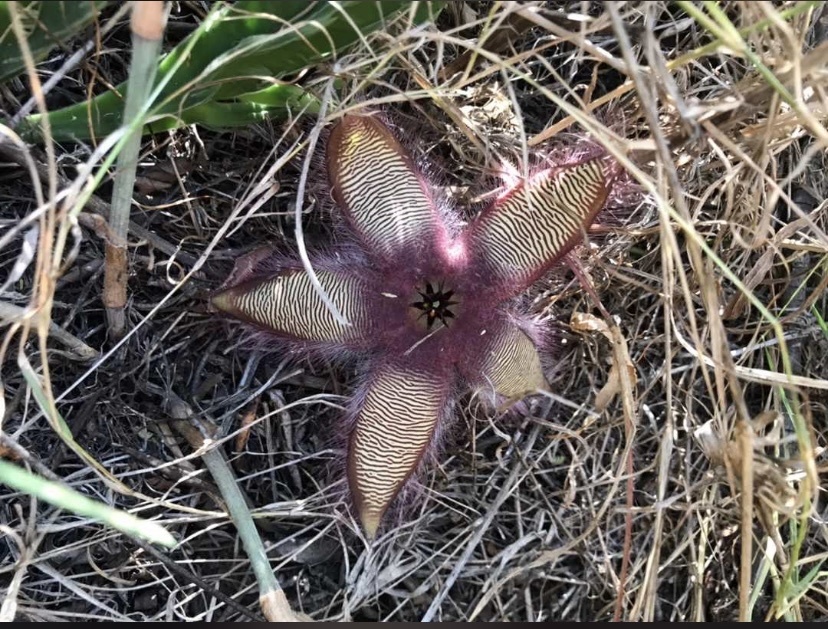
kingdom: Plantae
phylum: Tracheophyta
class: Magnoliopsida
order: Gentianales
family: Apocynaceae
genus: Stapelia
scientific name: Stapelia gettliffei
